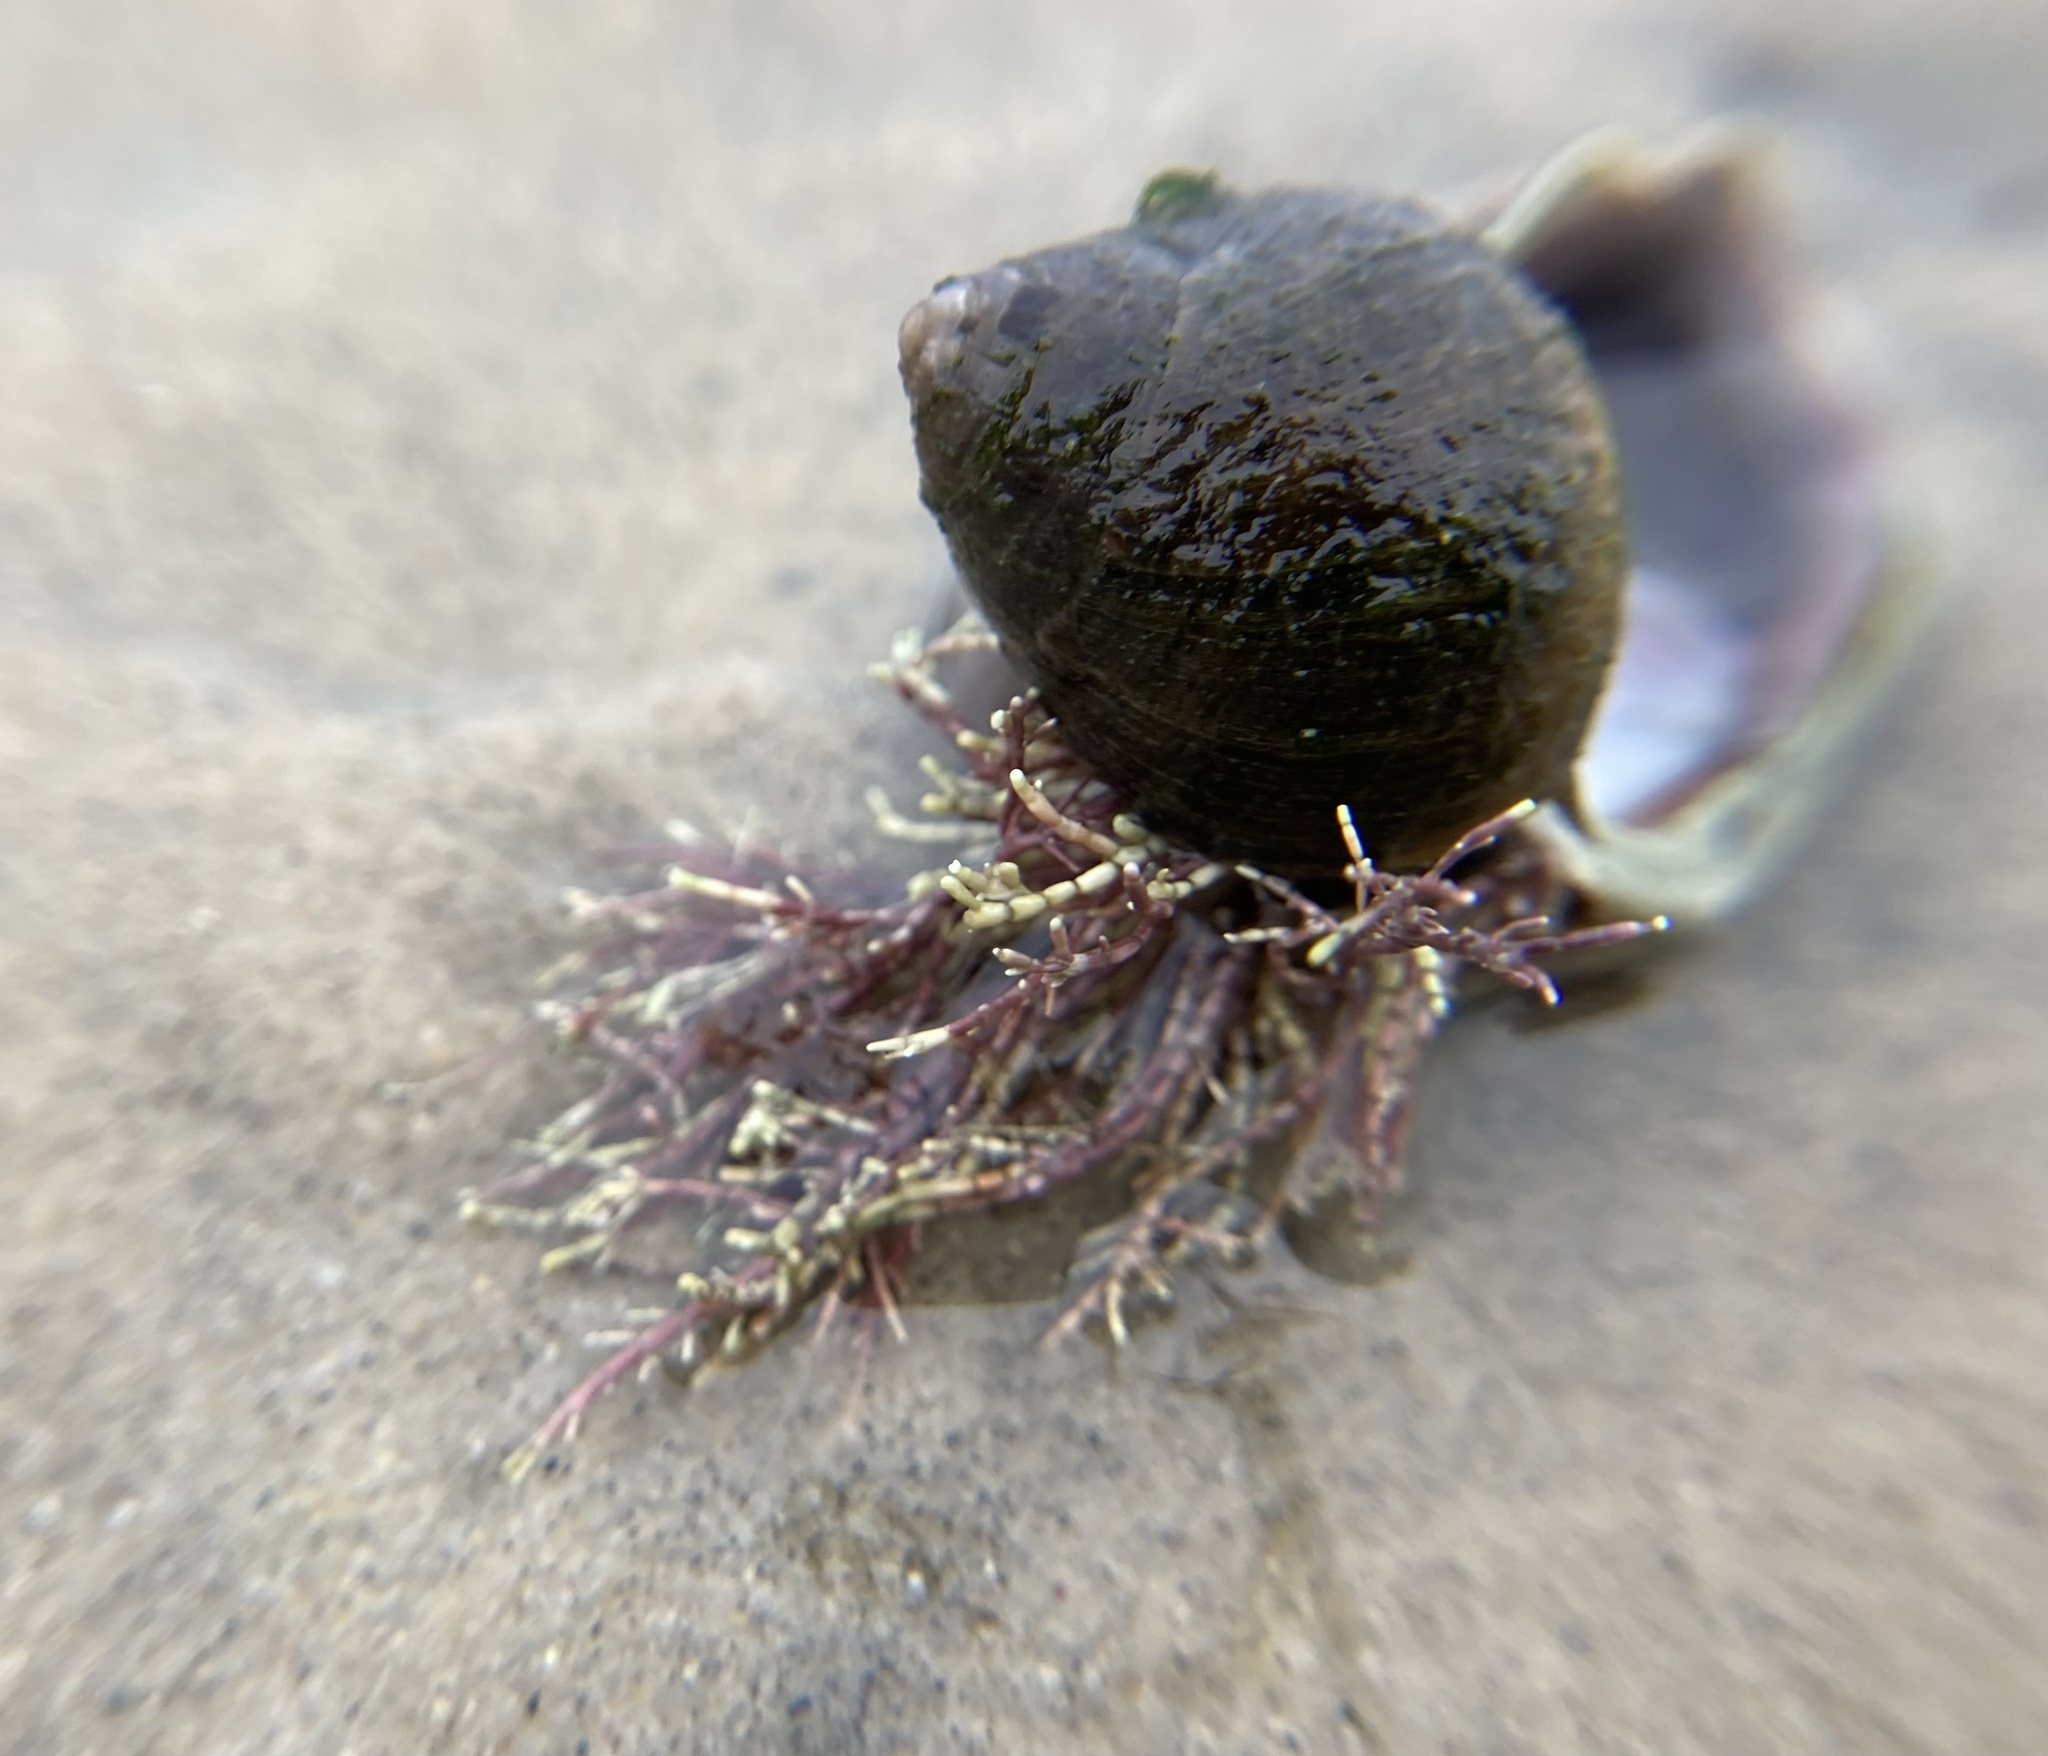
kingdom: Animalia
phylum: Mollusca
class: Gastropoda
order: Littorinimorpha
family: Littorinidae
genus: Littorina
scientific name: Littorina littorea
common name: Common periwinkle
